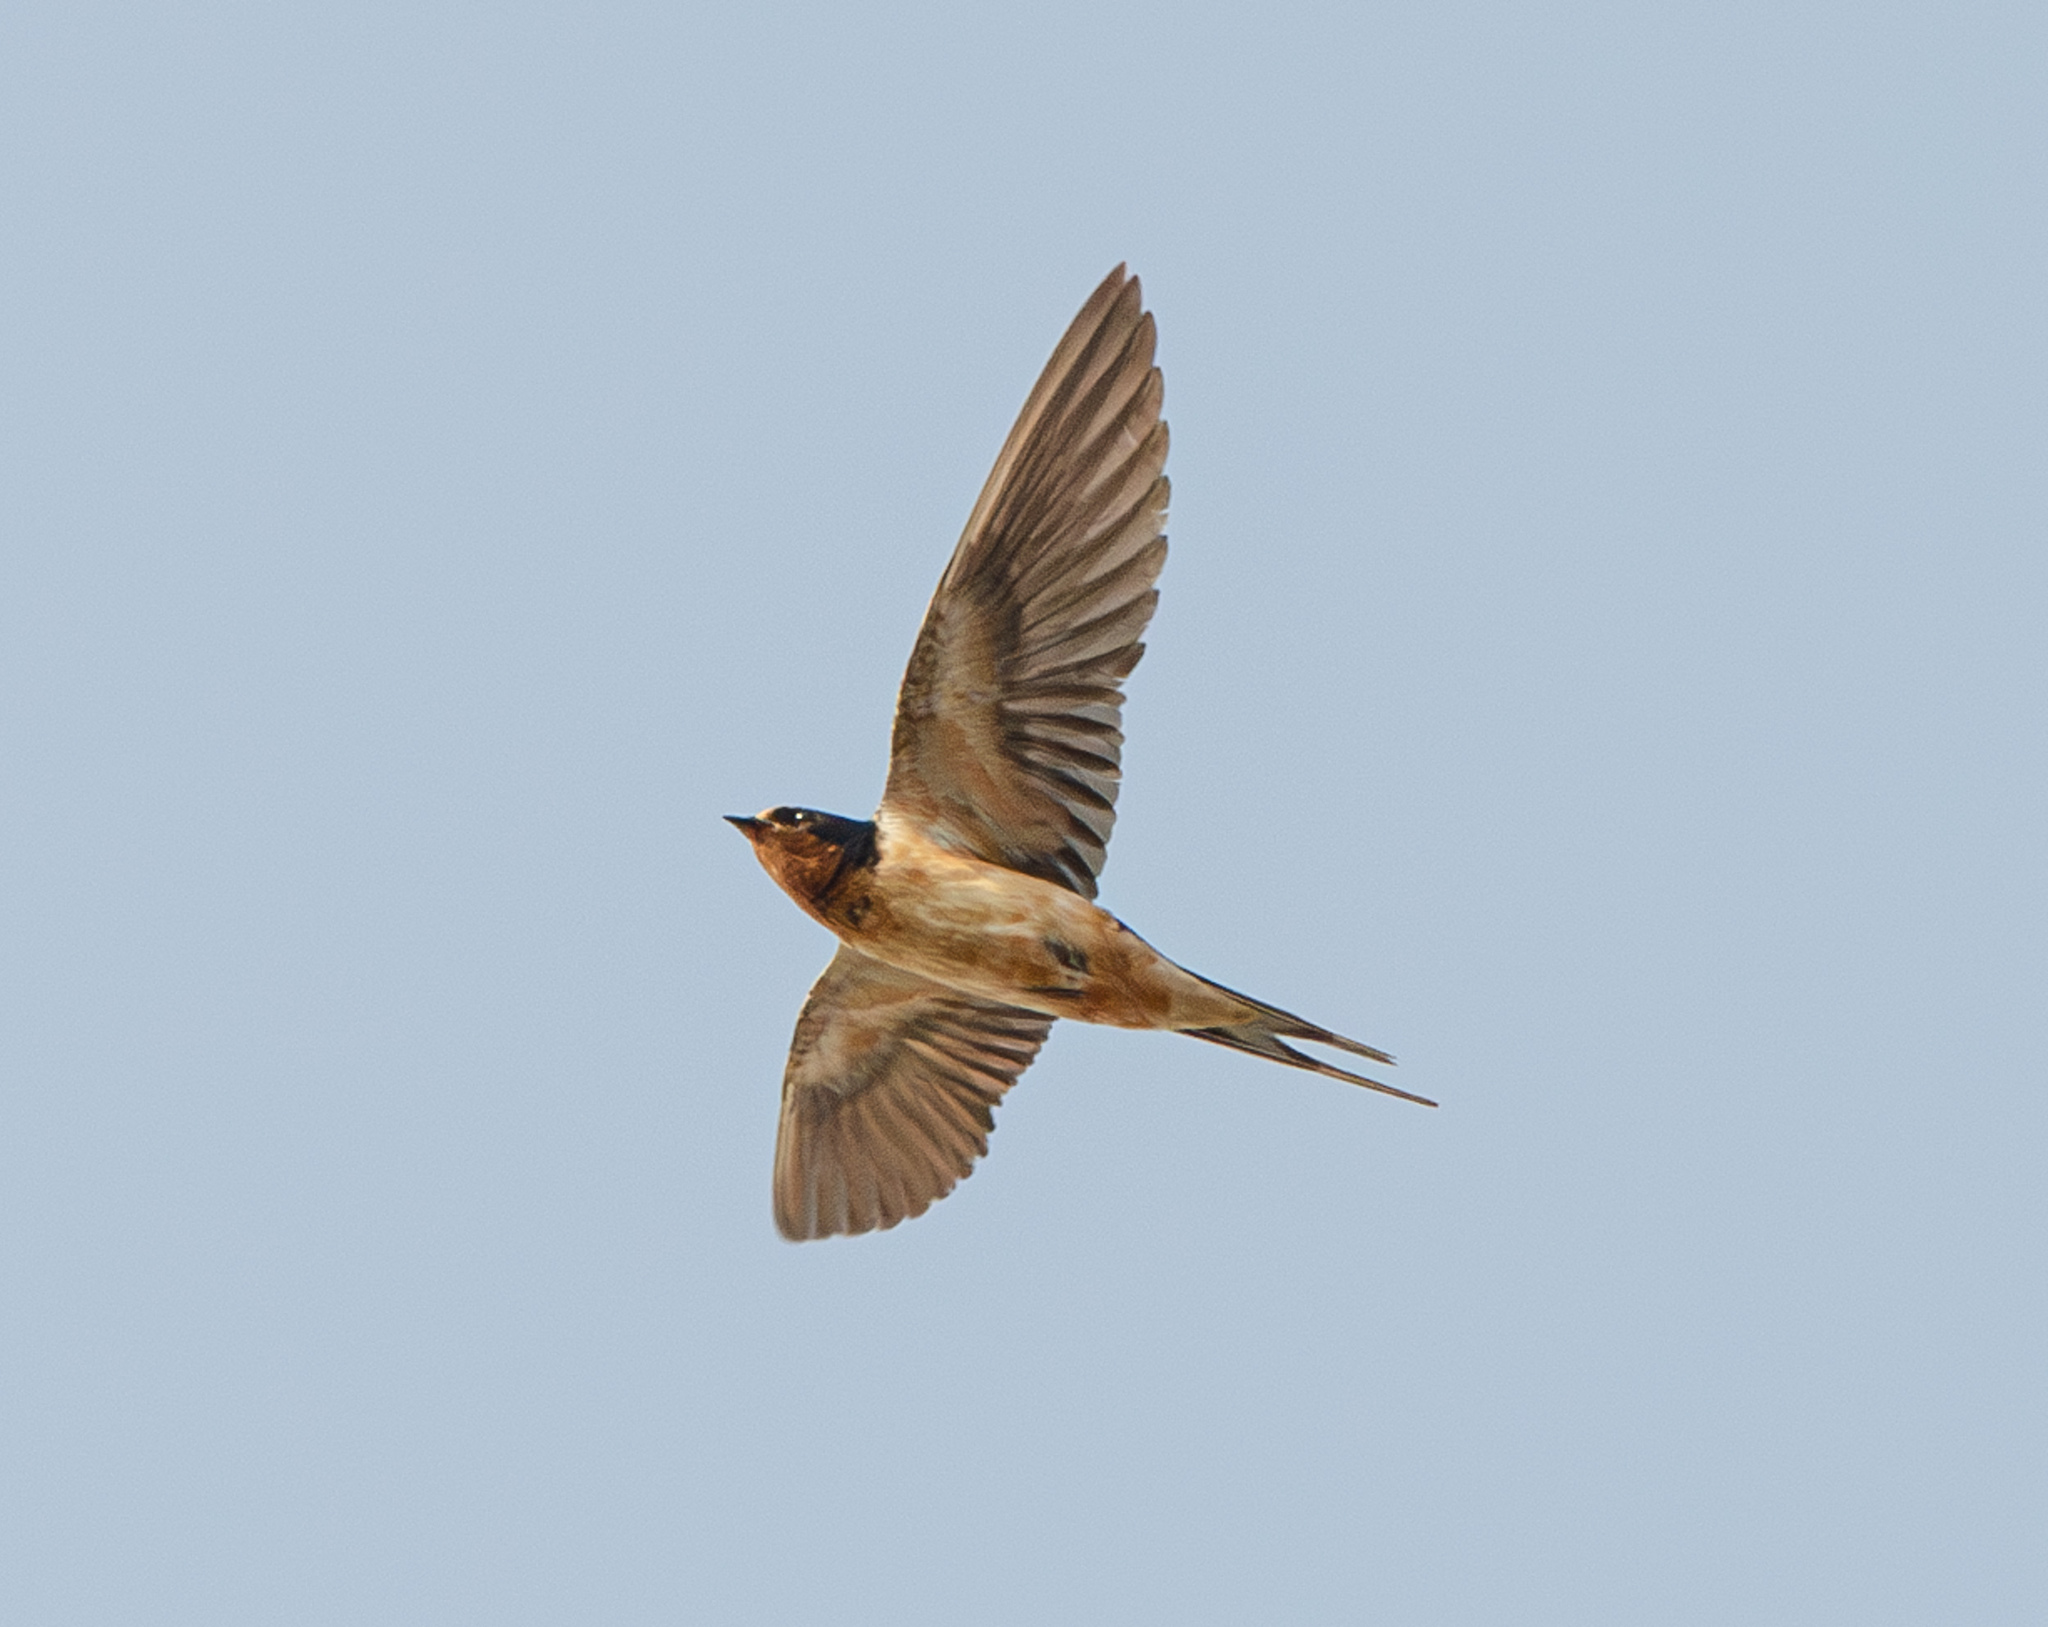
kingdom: Animalia
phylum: Chordata
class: Aves
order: Passeriformes
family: Hirundinidae
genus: Hirundo
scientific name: Hirundo rustica
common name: Barn swallow
